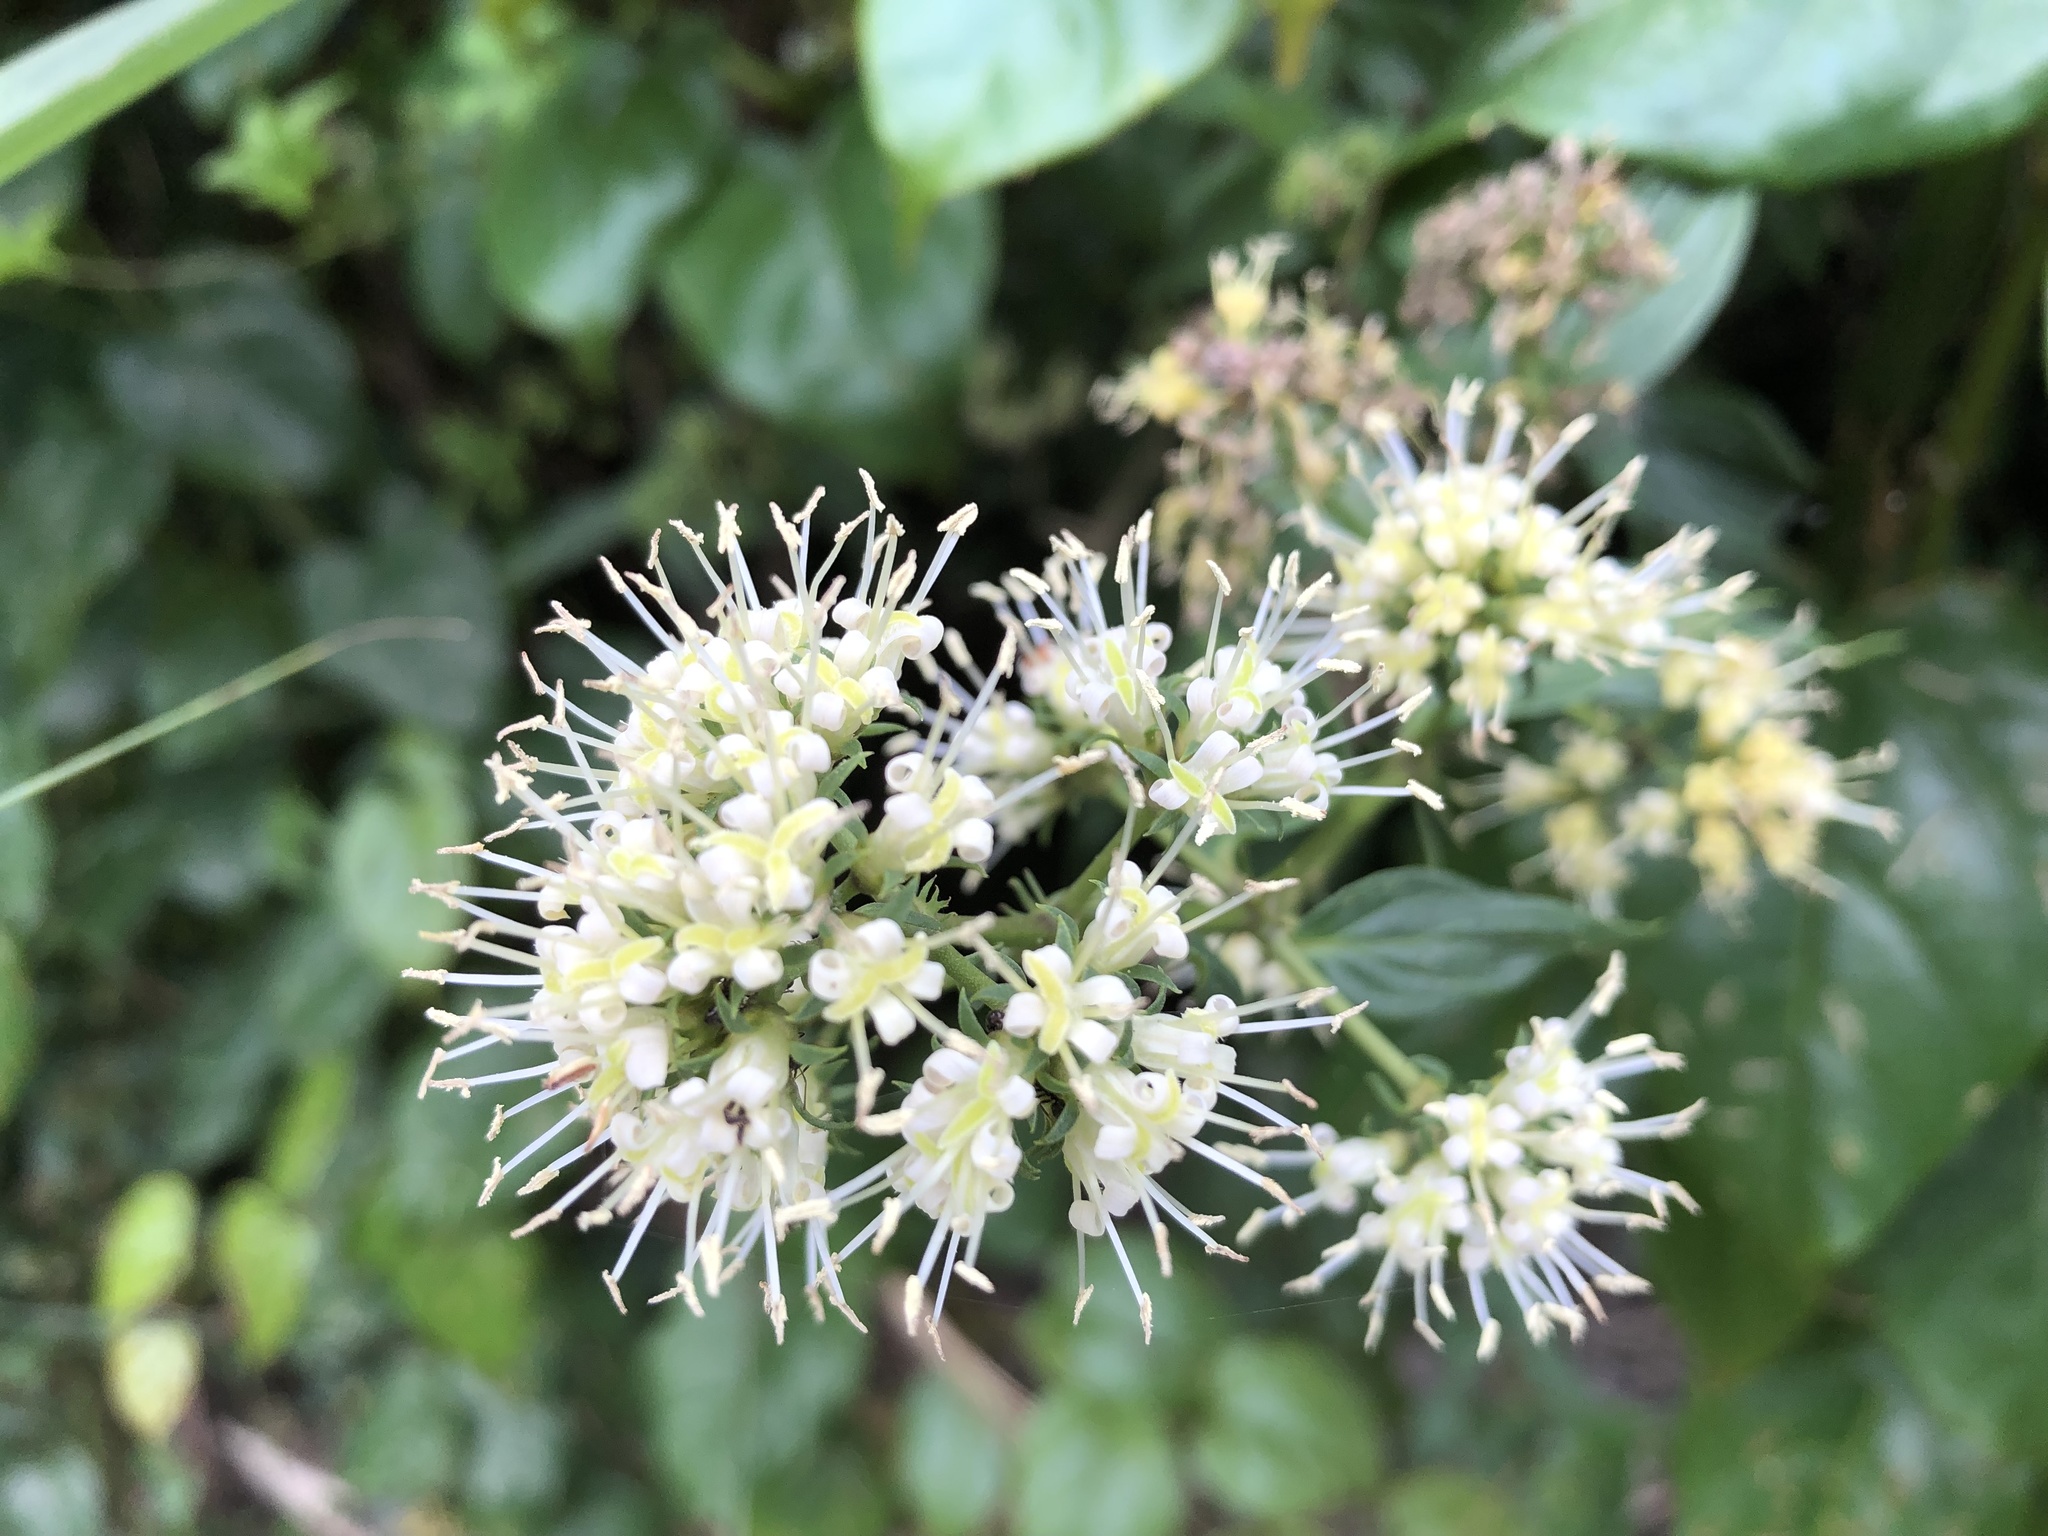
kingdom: Plantae
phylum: Tracheophyta
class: Magnoliopsida
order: Gentianales
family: Rubiaceae
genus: Dimetia
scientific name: Dimetia hedyotidea
